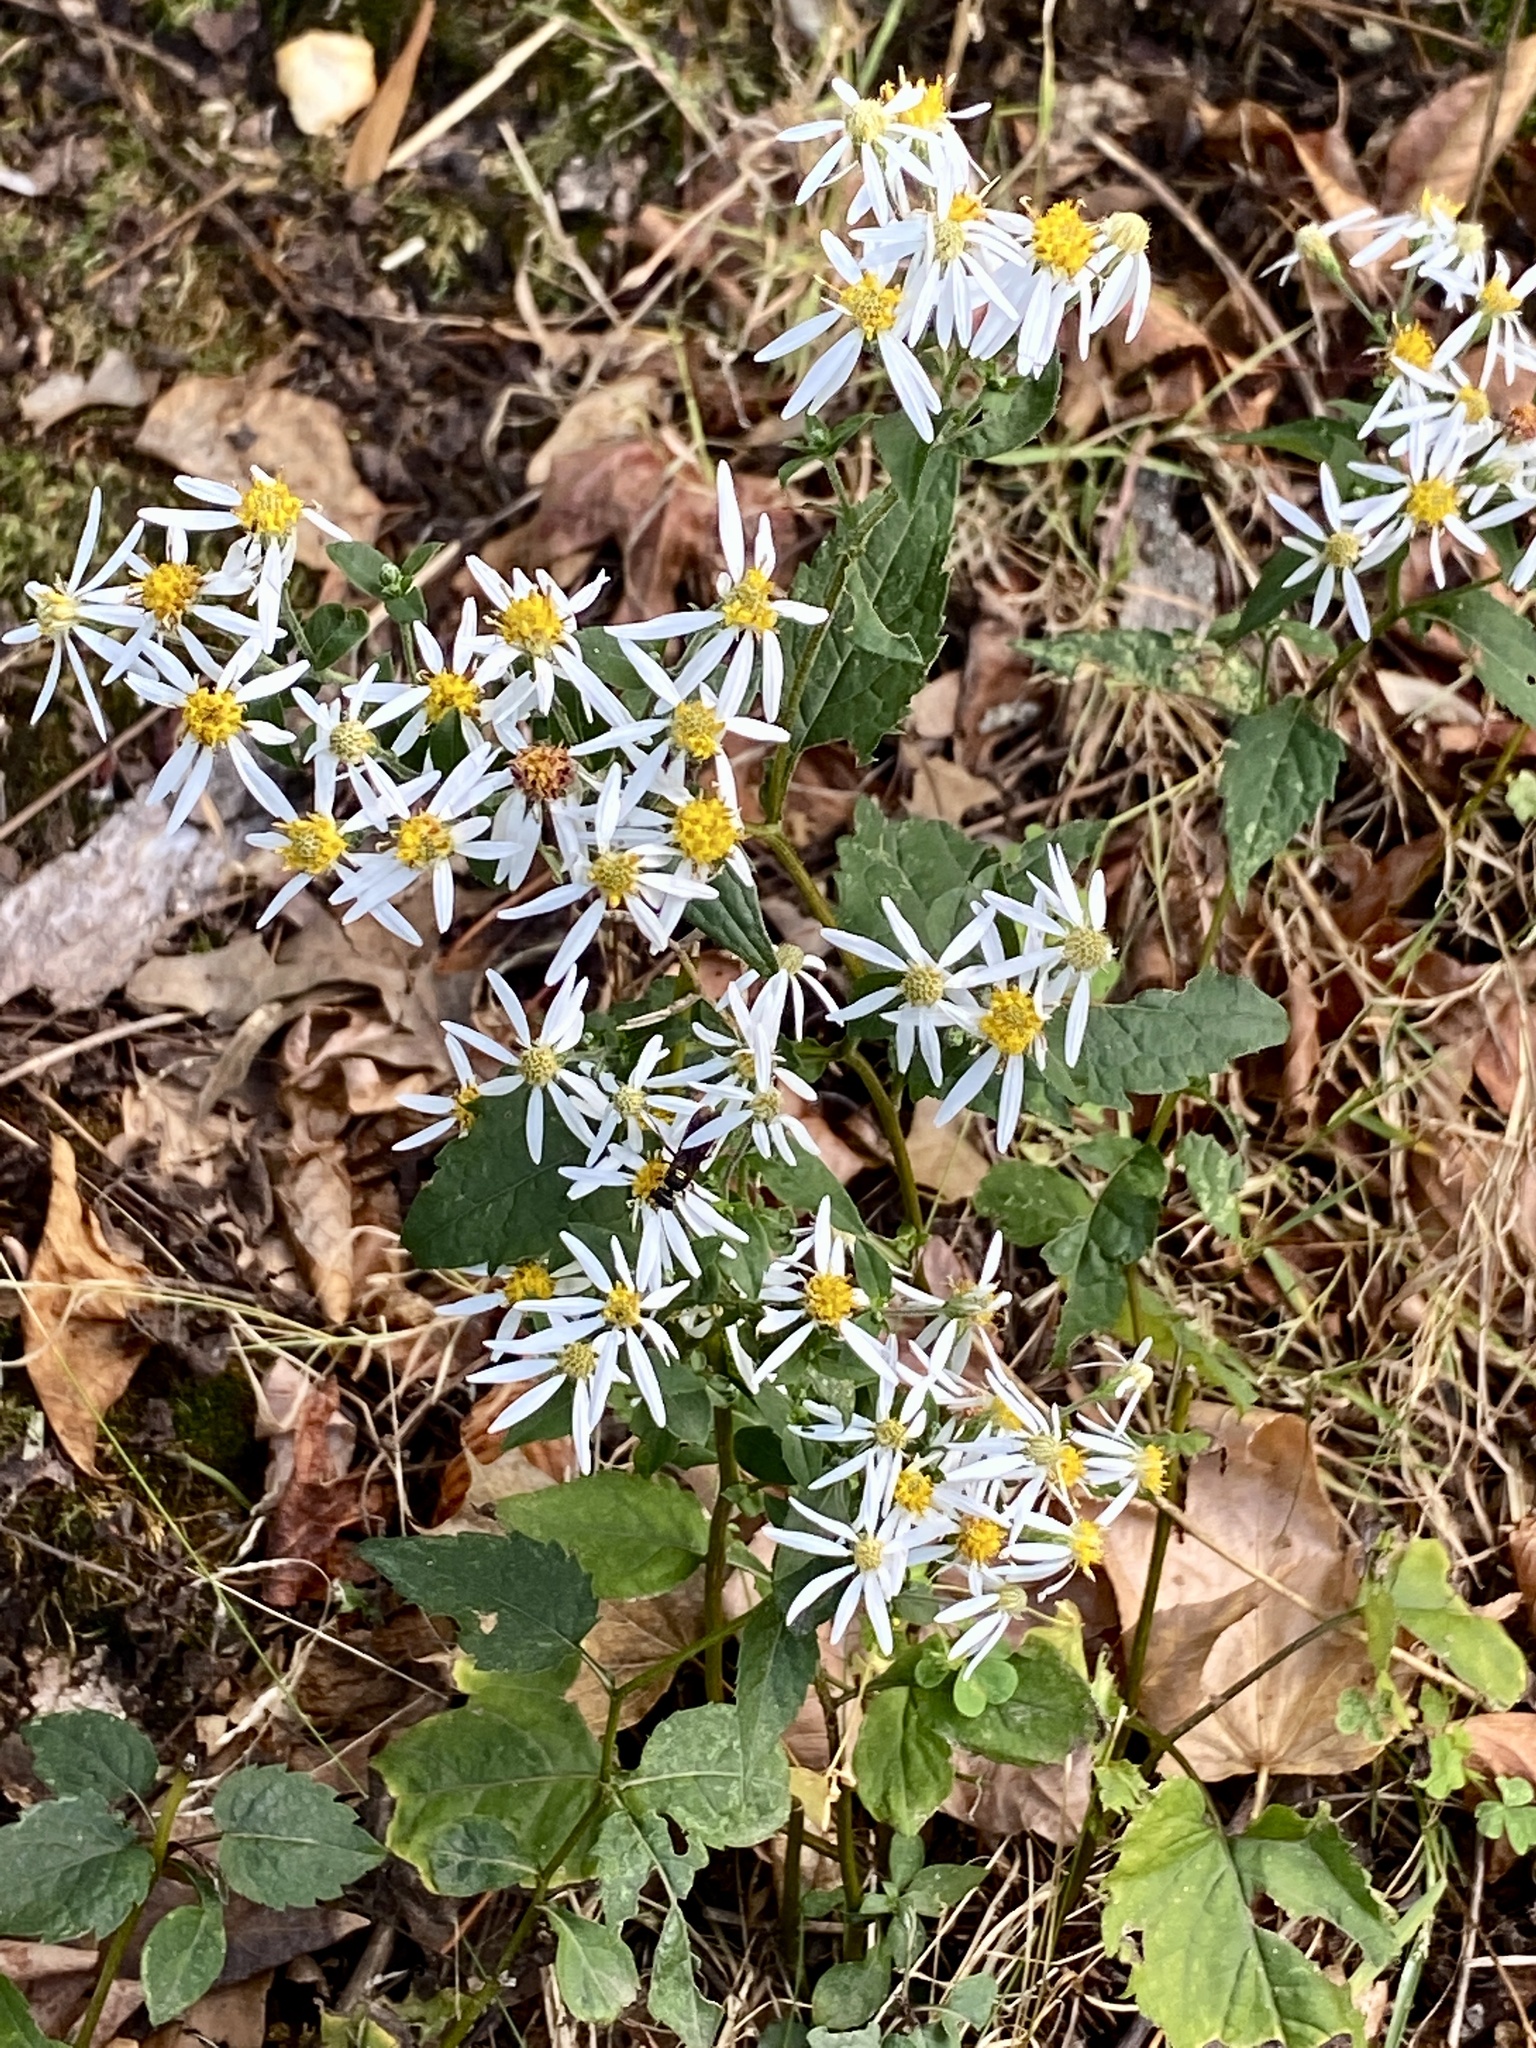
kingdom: Plantae
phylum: Tracheophyta
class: Magnoliopsida
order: Asterales
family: Asteraceae
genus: Eurybia
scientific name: Eurybia divaricata
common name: White wood aster
